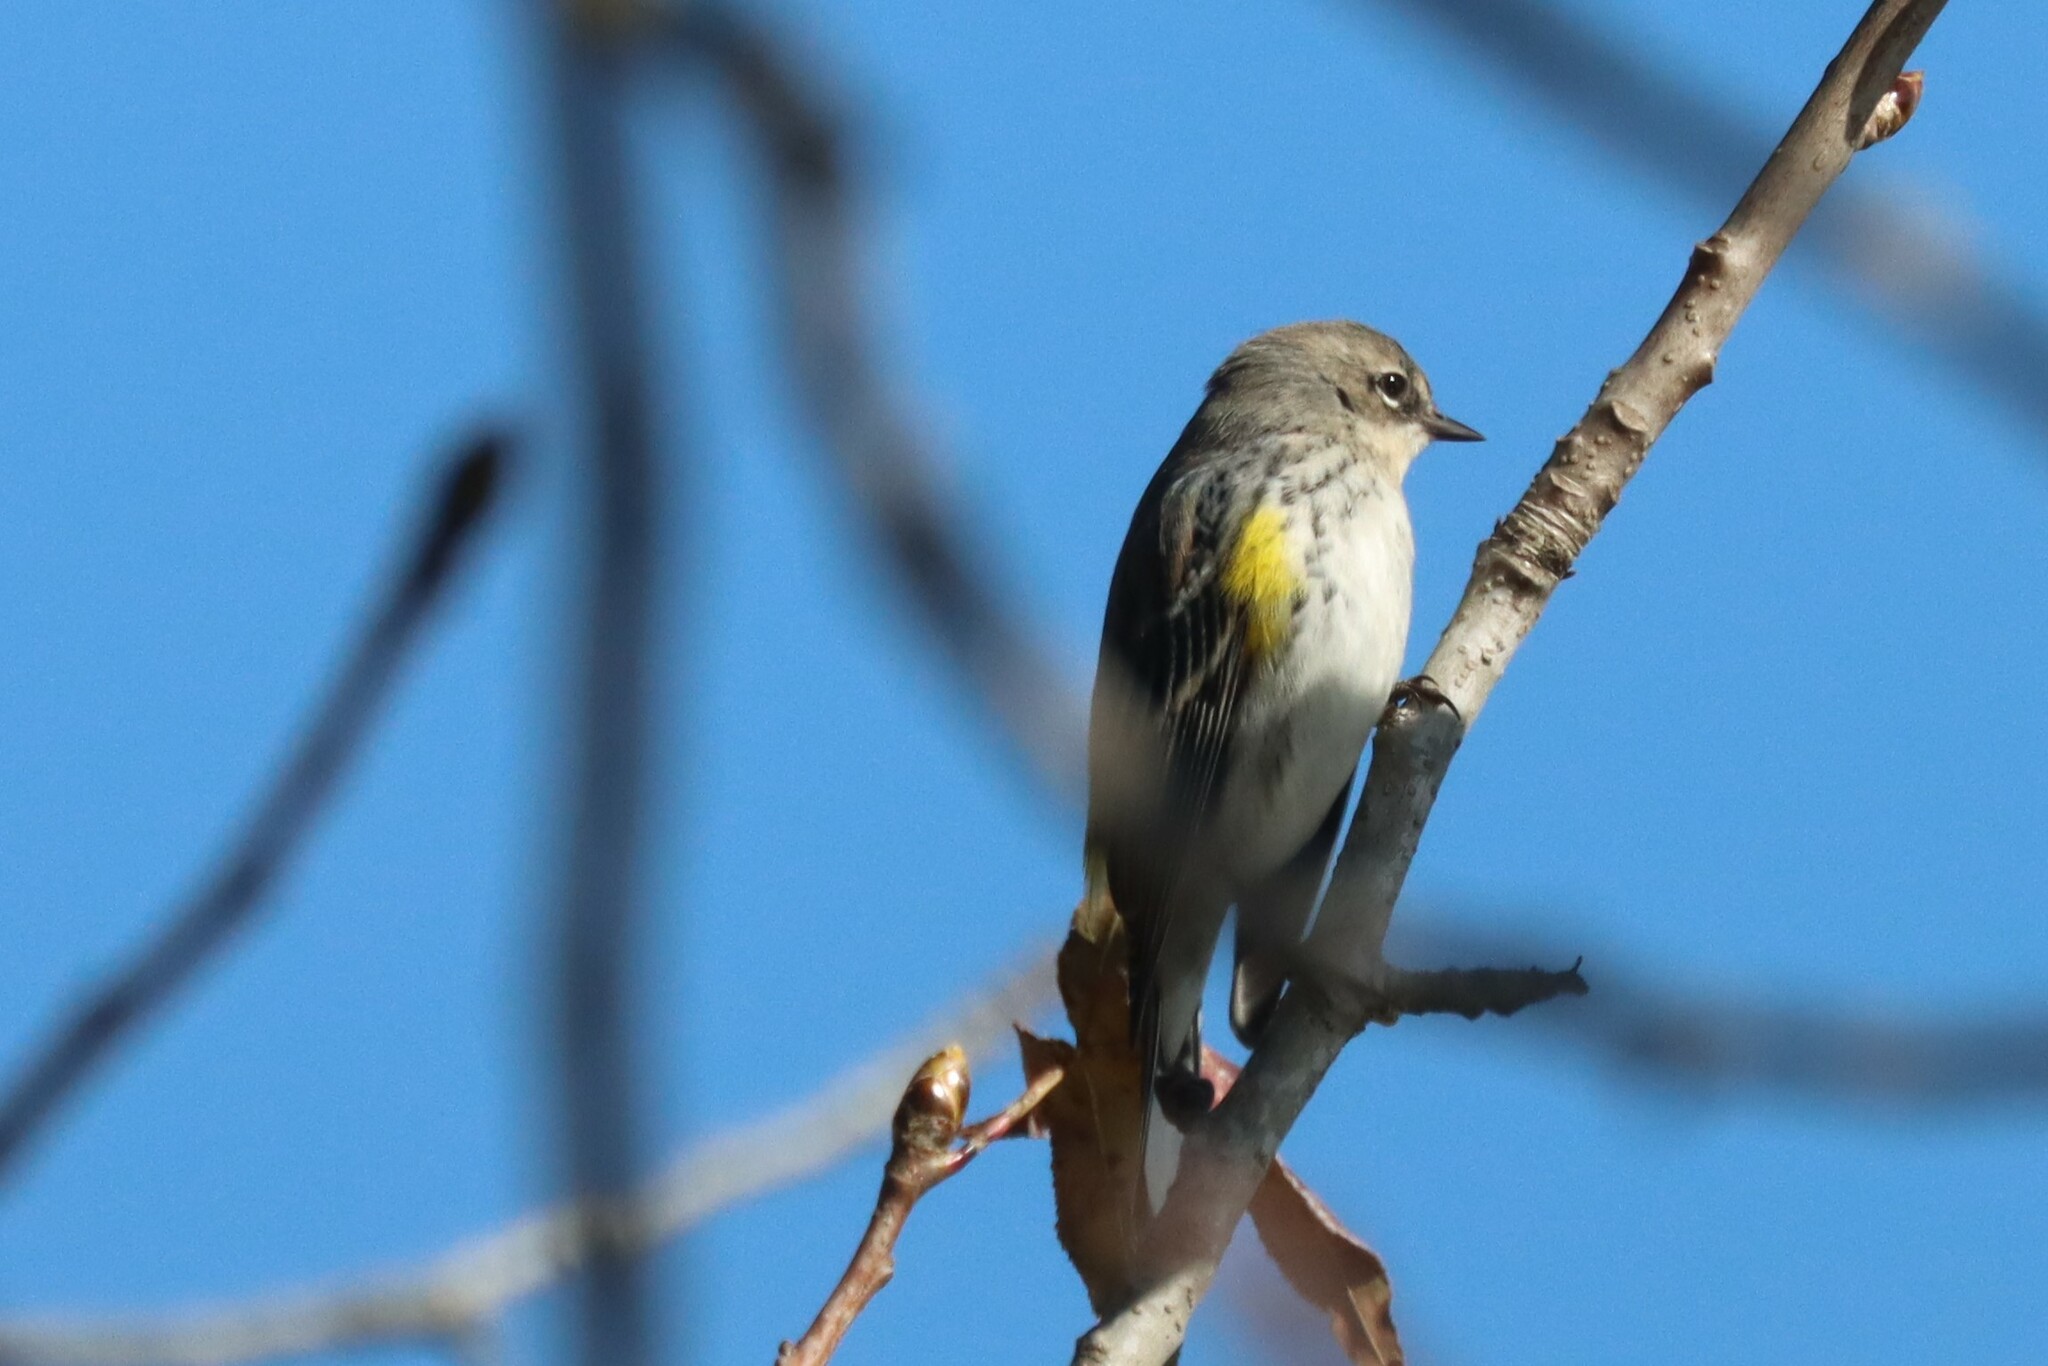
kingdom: Animalia
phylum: Chordata
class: Aves
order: Passeriformes
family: Parulidae
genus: Setophaga
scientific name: Setophaga coronata
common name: Myrtle warbler
